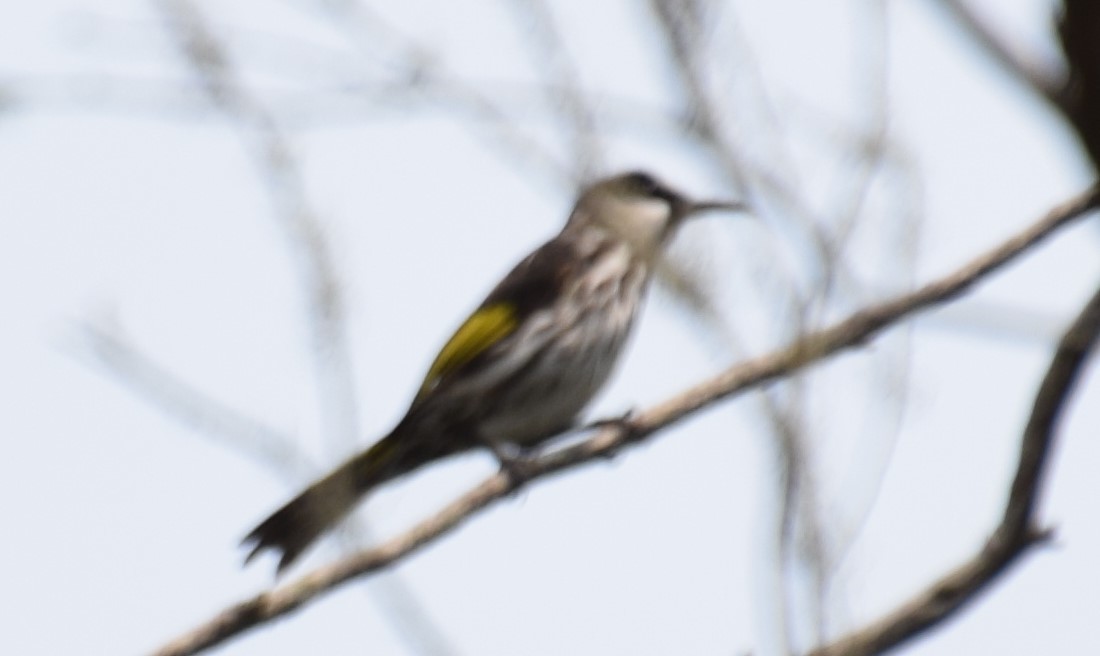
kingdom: Animalia
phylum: Chordata
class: Aves
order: Passeriformes
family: Meliphagidae
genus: Phylidonyris
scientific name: Phylidonyris niger
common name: White-cheeked honeyeater
